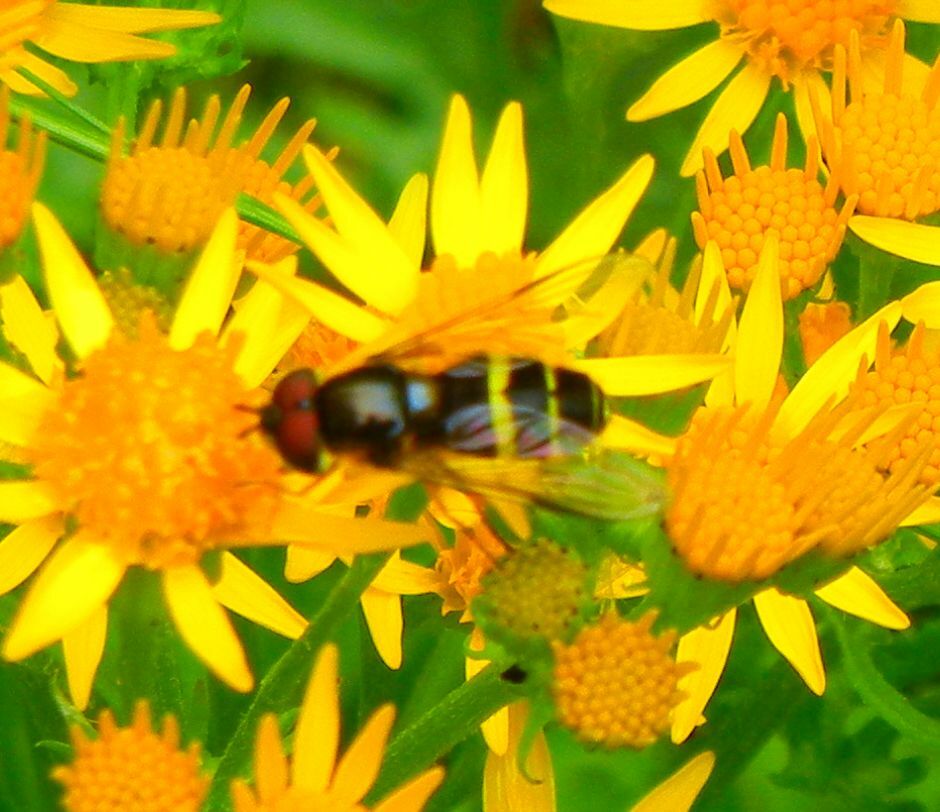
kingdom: Animalia
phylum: Arthropoda
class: Insecta
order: Diptera
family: Syrphidae
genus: Dasysyrphus
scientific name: Dasysyrphus tricinctus
